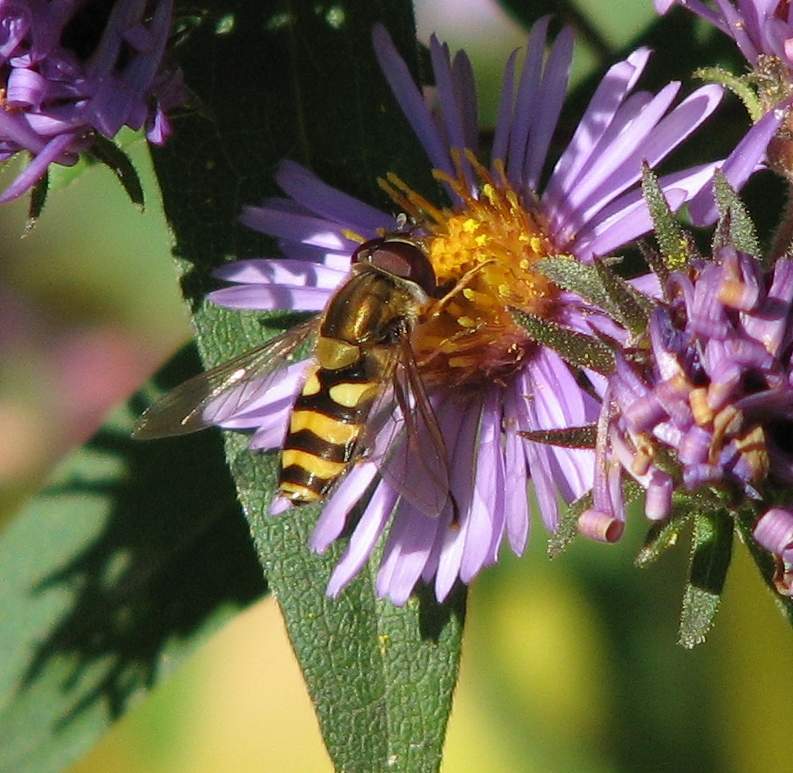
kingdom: Animalia
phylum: Arthropoda
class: Insecta
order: Diptera
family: Syrphidae
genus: Syrphus
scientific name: Syrphus
